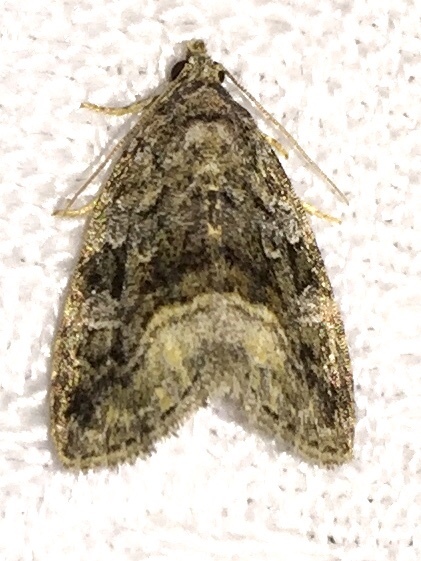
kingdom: Animalia
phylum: Arthropoda
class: Insecta
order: Lepidoptera
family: Noctuidae
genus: Protodeltote
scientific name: Protodeltote muscosula
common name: Large mossy glyph
